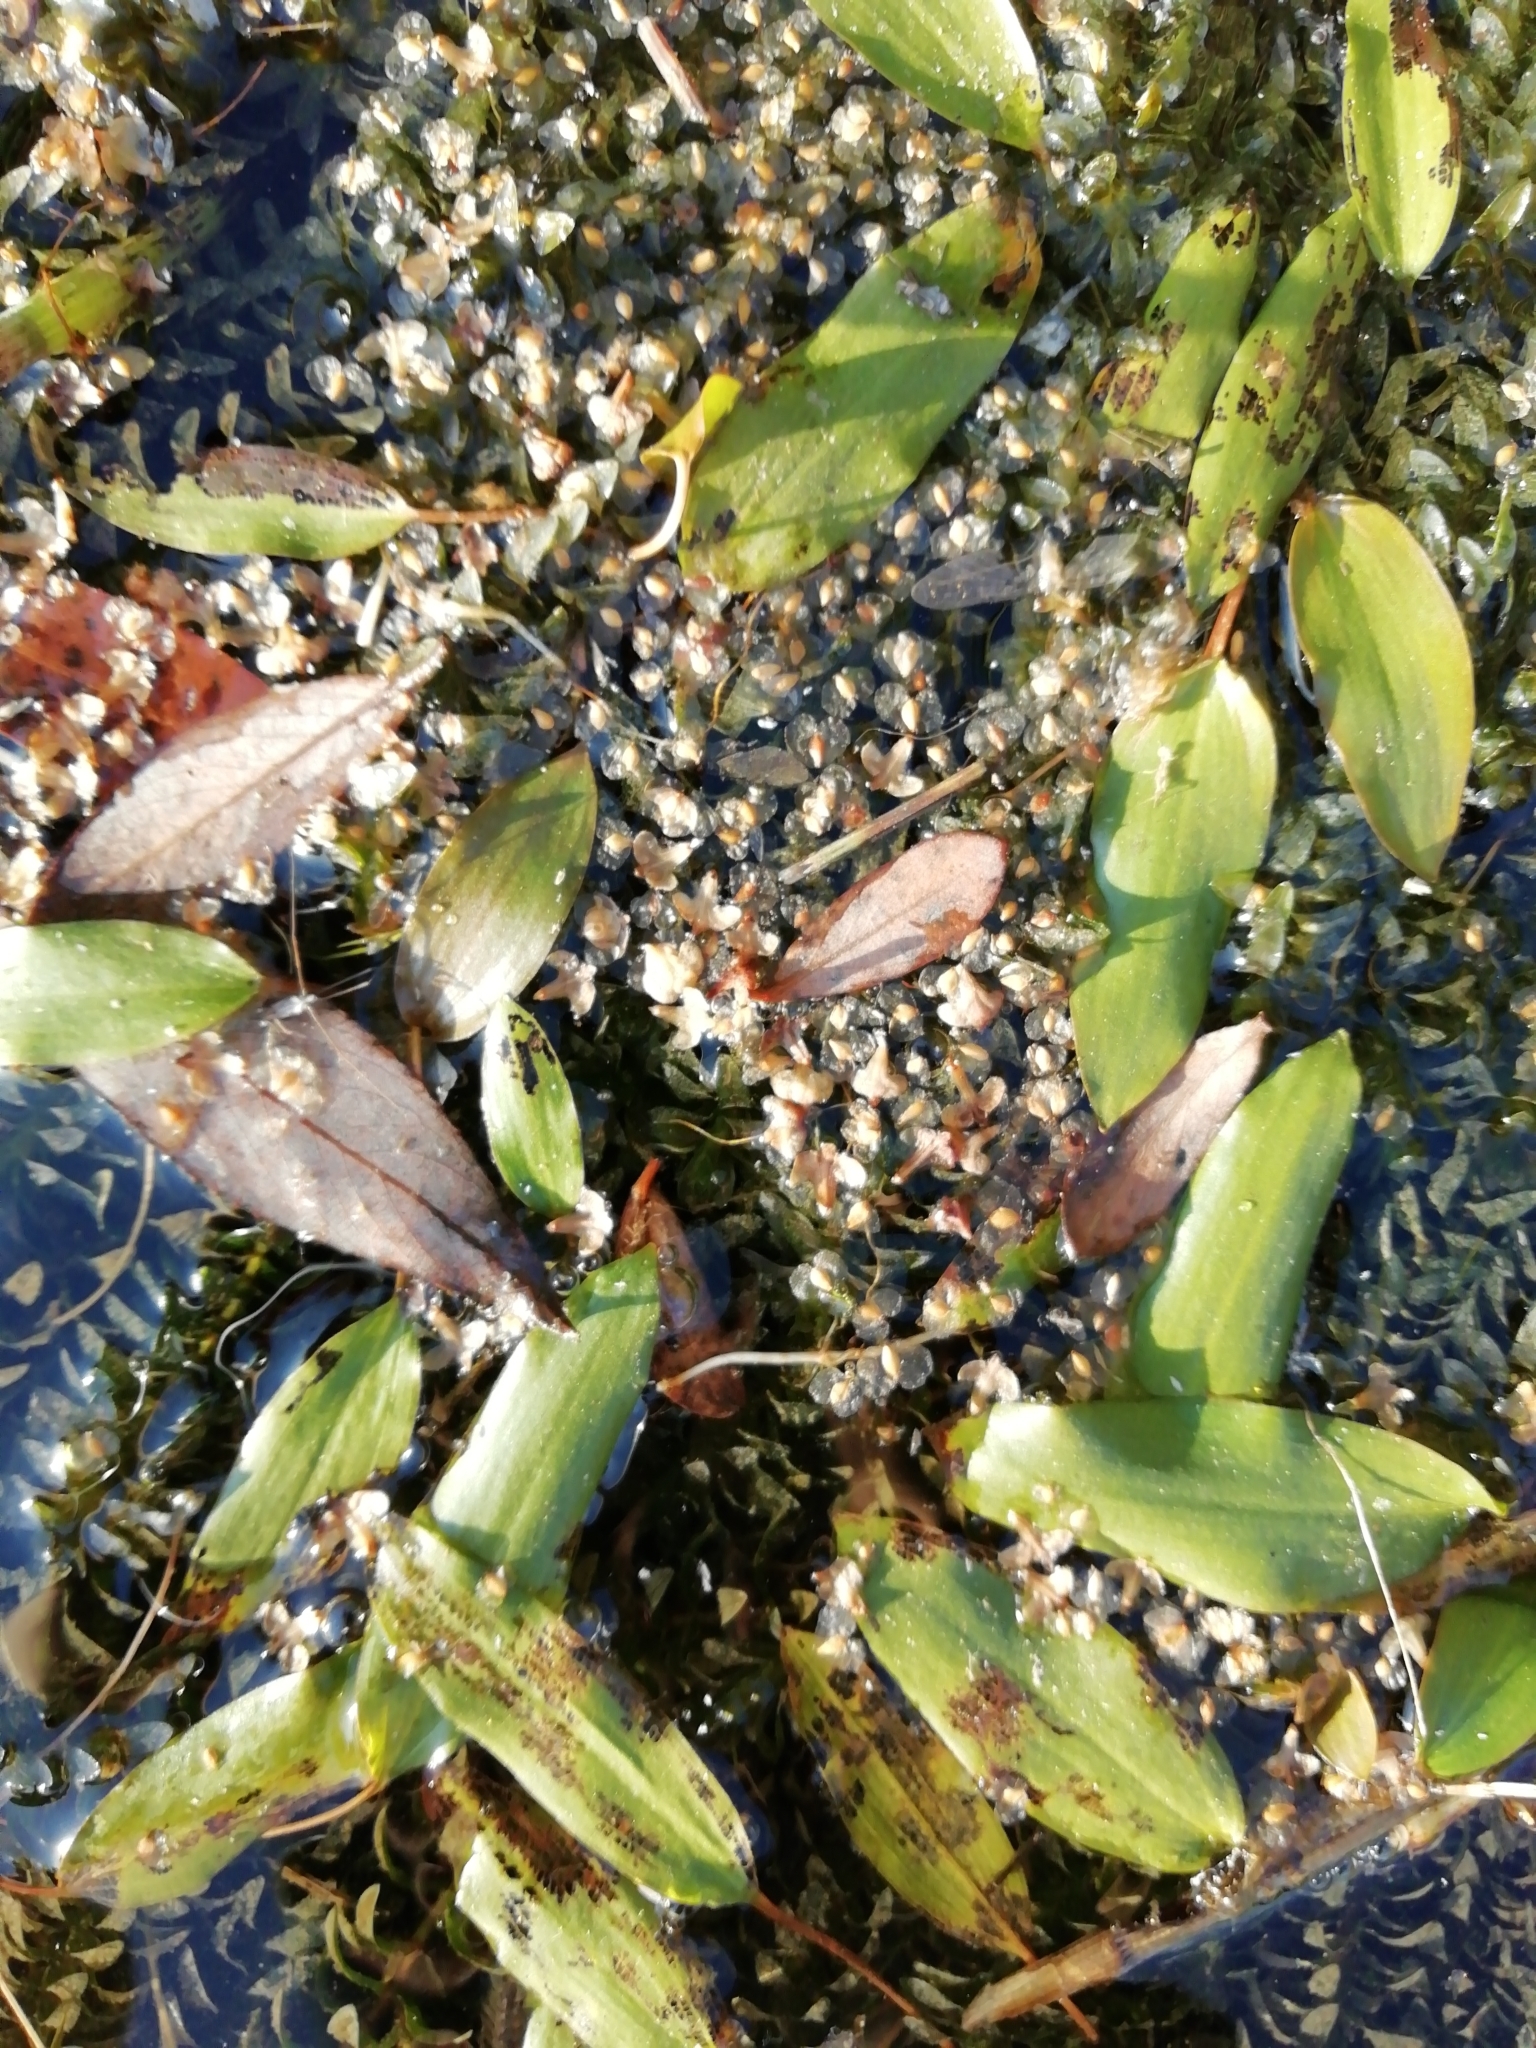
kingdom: Plantae
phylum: Tracheophyta
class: Liliopsida
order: Alismatales
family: Potamogetonaceae
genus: Potamogeton
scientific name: Potamogeton gramineus
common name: Various-leaved pondweed
